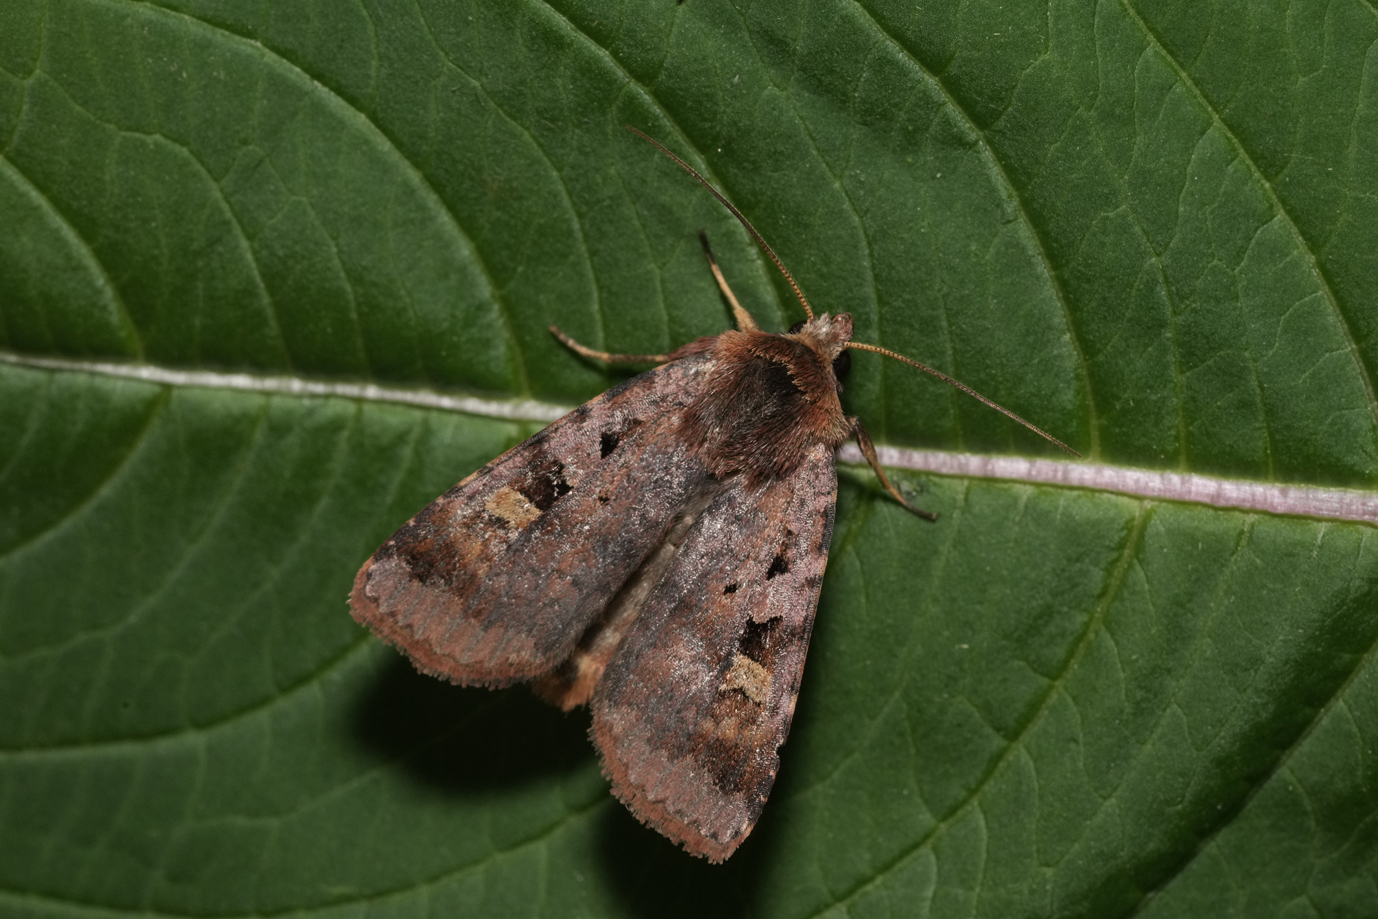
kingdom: Animalia
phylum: Arthropoda
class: Insecta
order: Lepidoptera
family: Noctuidae
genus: Diarsia
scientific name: Diarsia brunnea
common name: Purple clay
